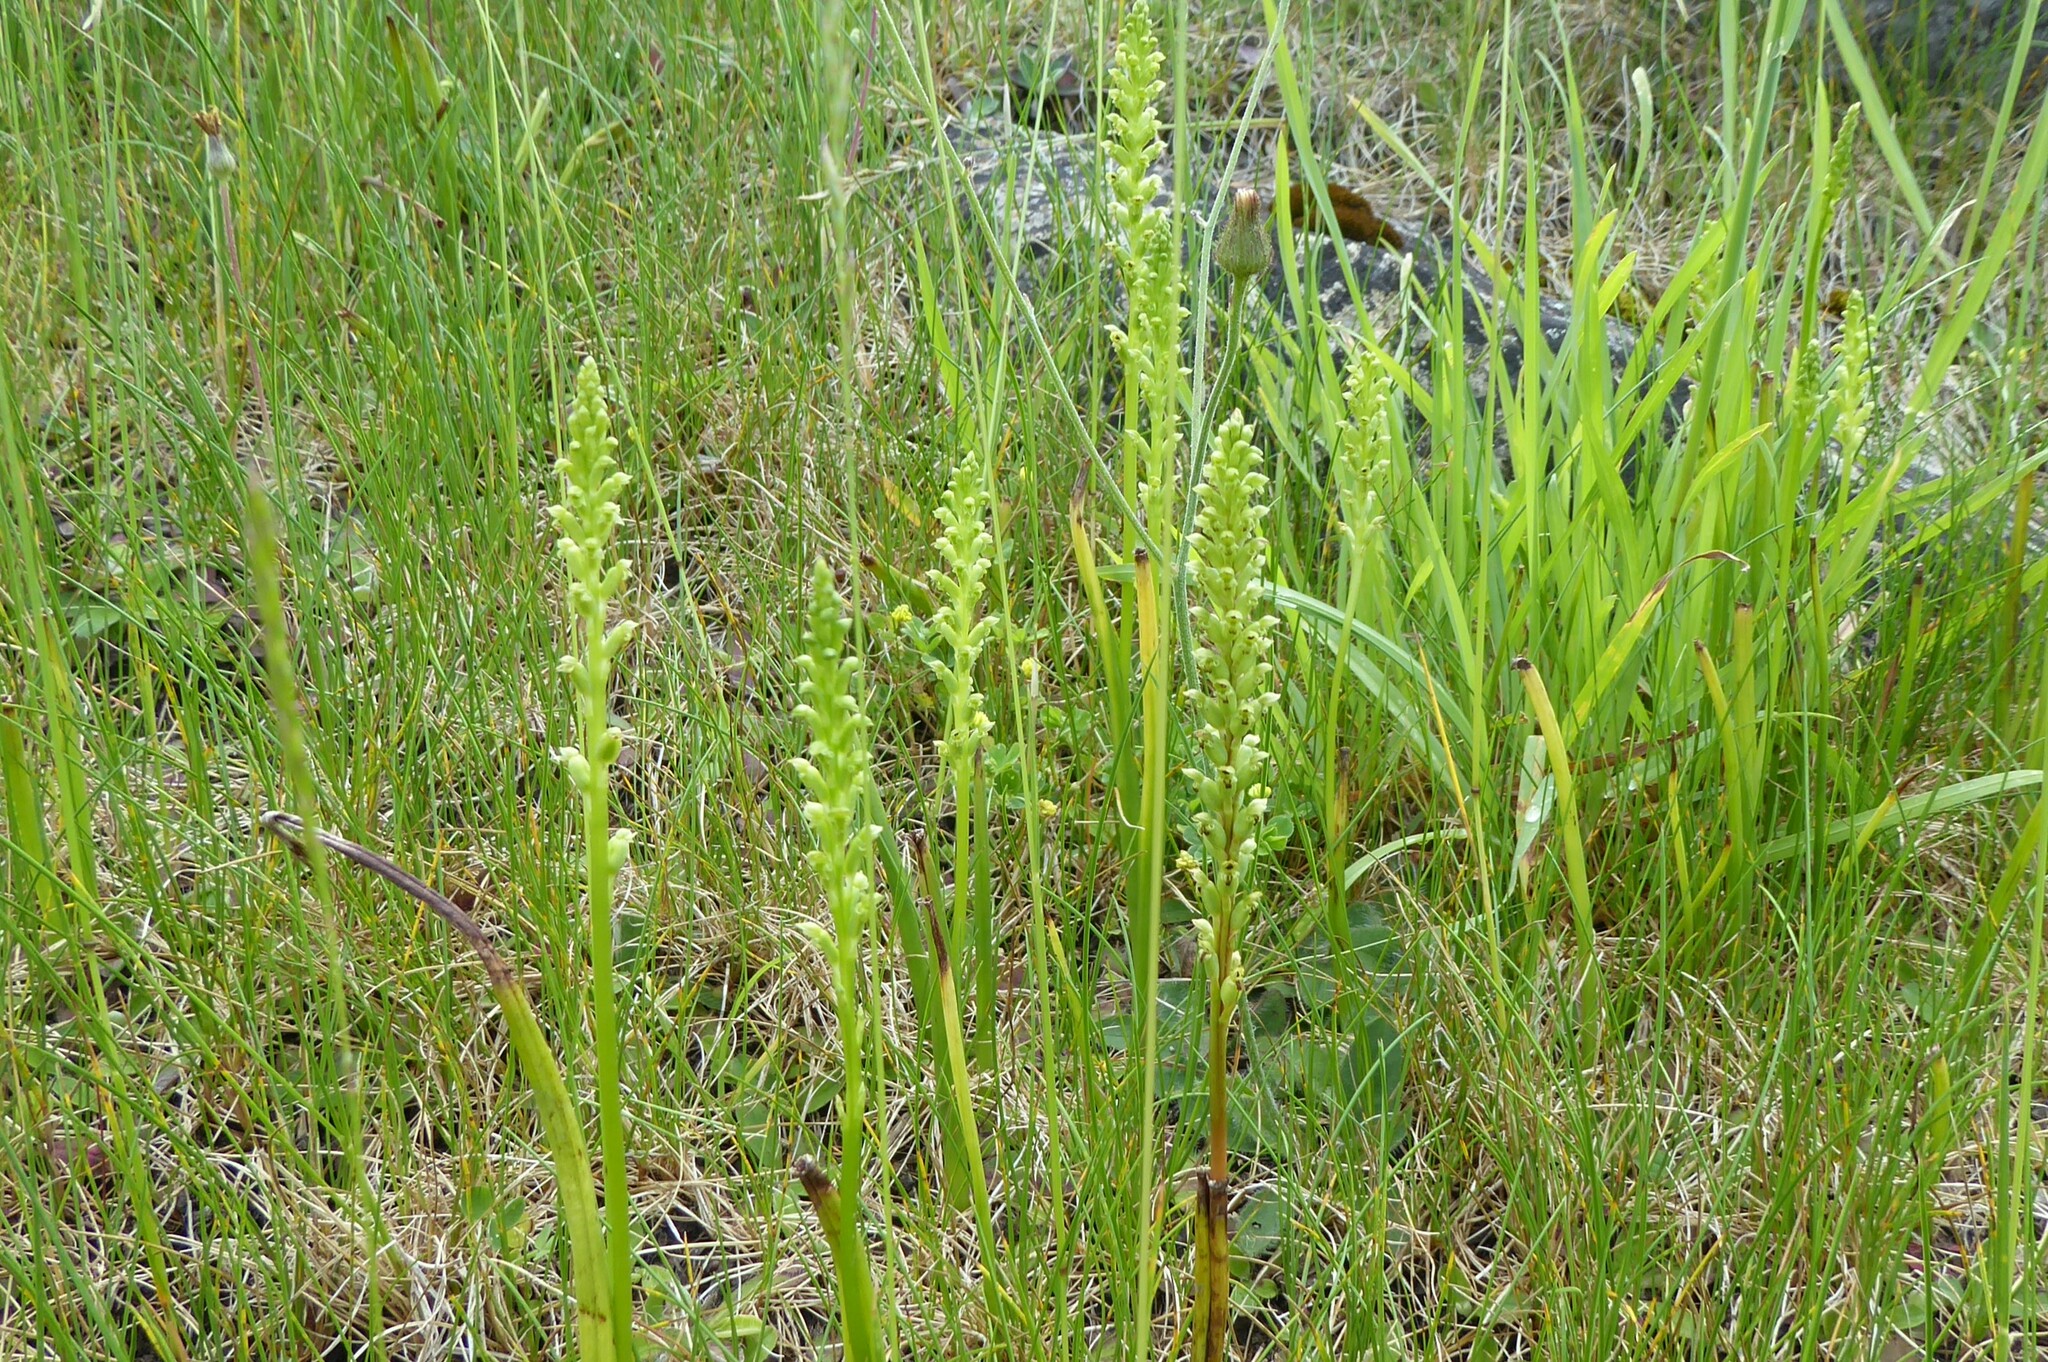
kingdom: Plantae
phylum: Tracheophyta
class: Liliopsida
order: Asparagales
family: Orchidaceae
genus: Microtis
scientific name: Microtis unifolia
